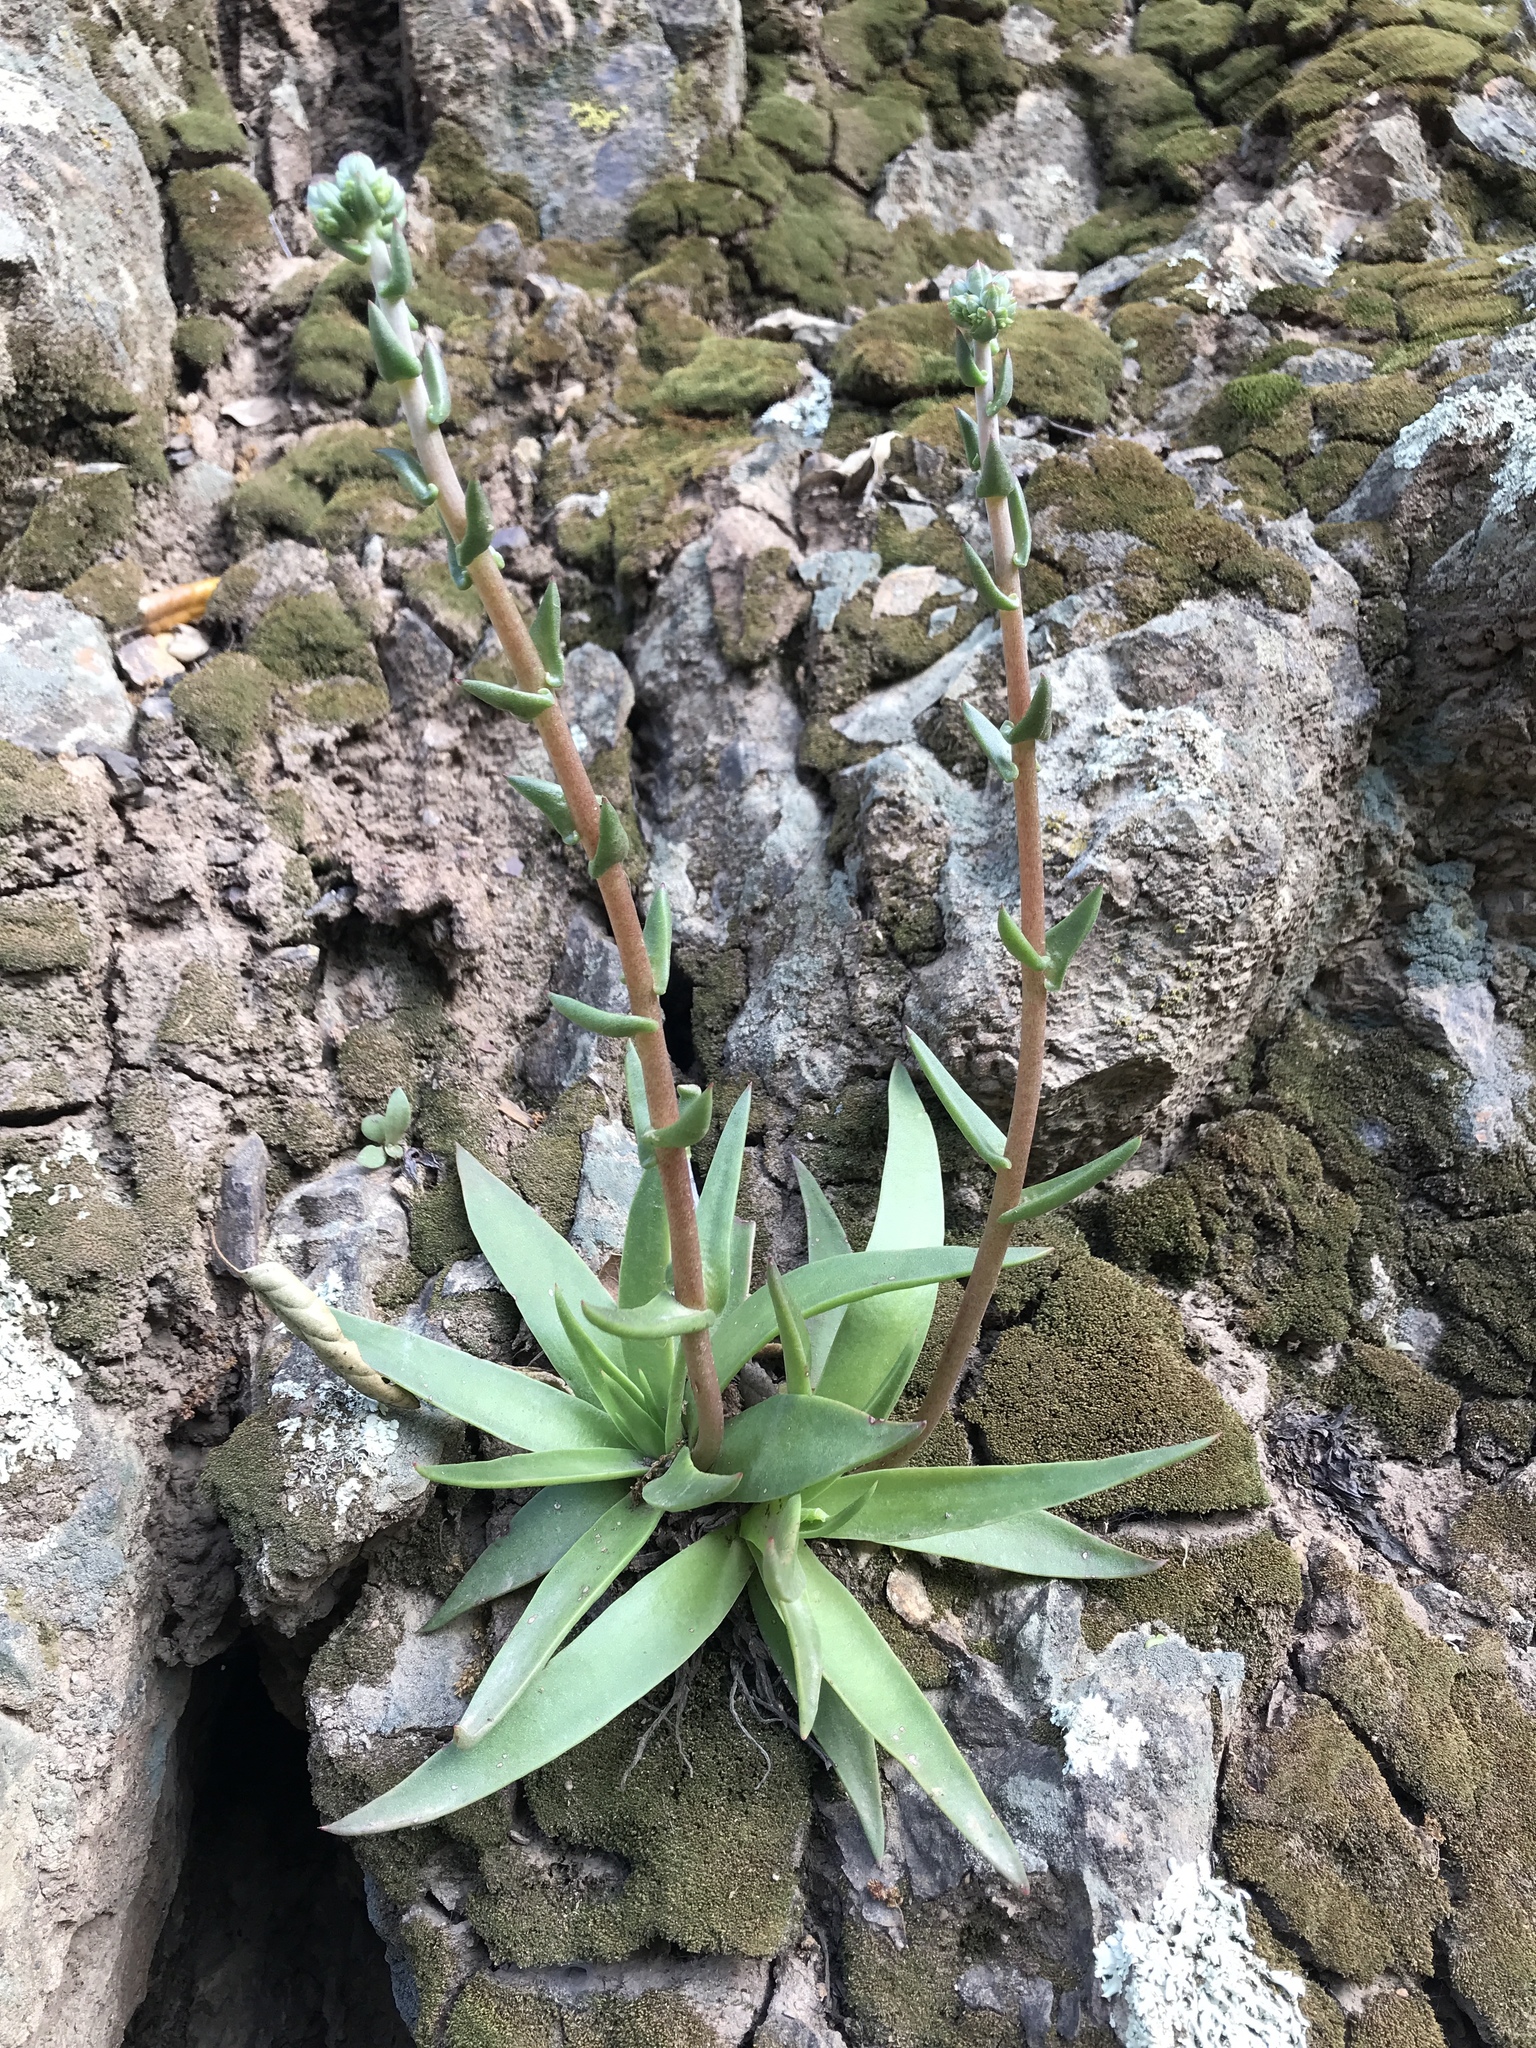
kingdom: Plantae
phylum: Tracheophyta
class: Magnoliopsida
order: Saxifragales
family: Crassulaceae
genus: Dudleya
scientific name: Dudleya lanceolata
